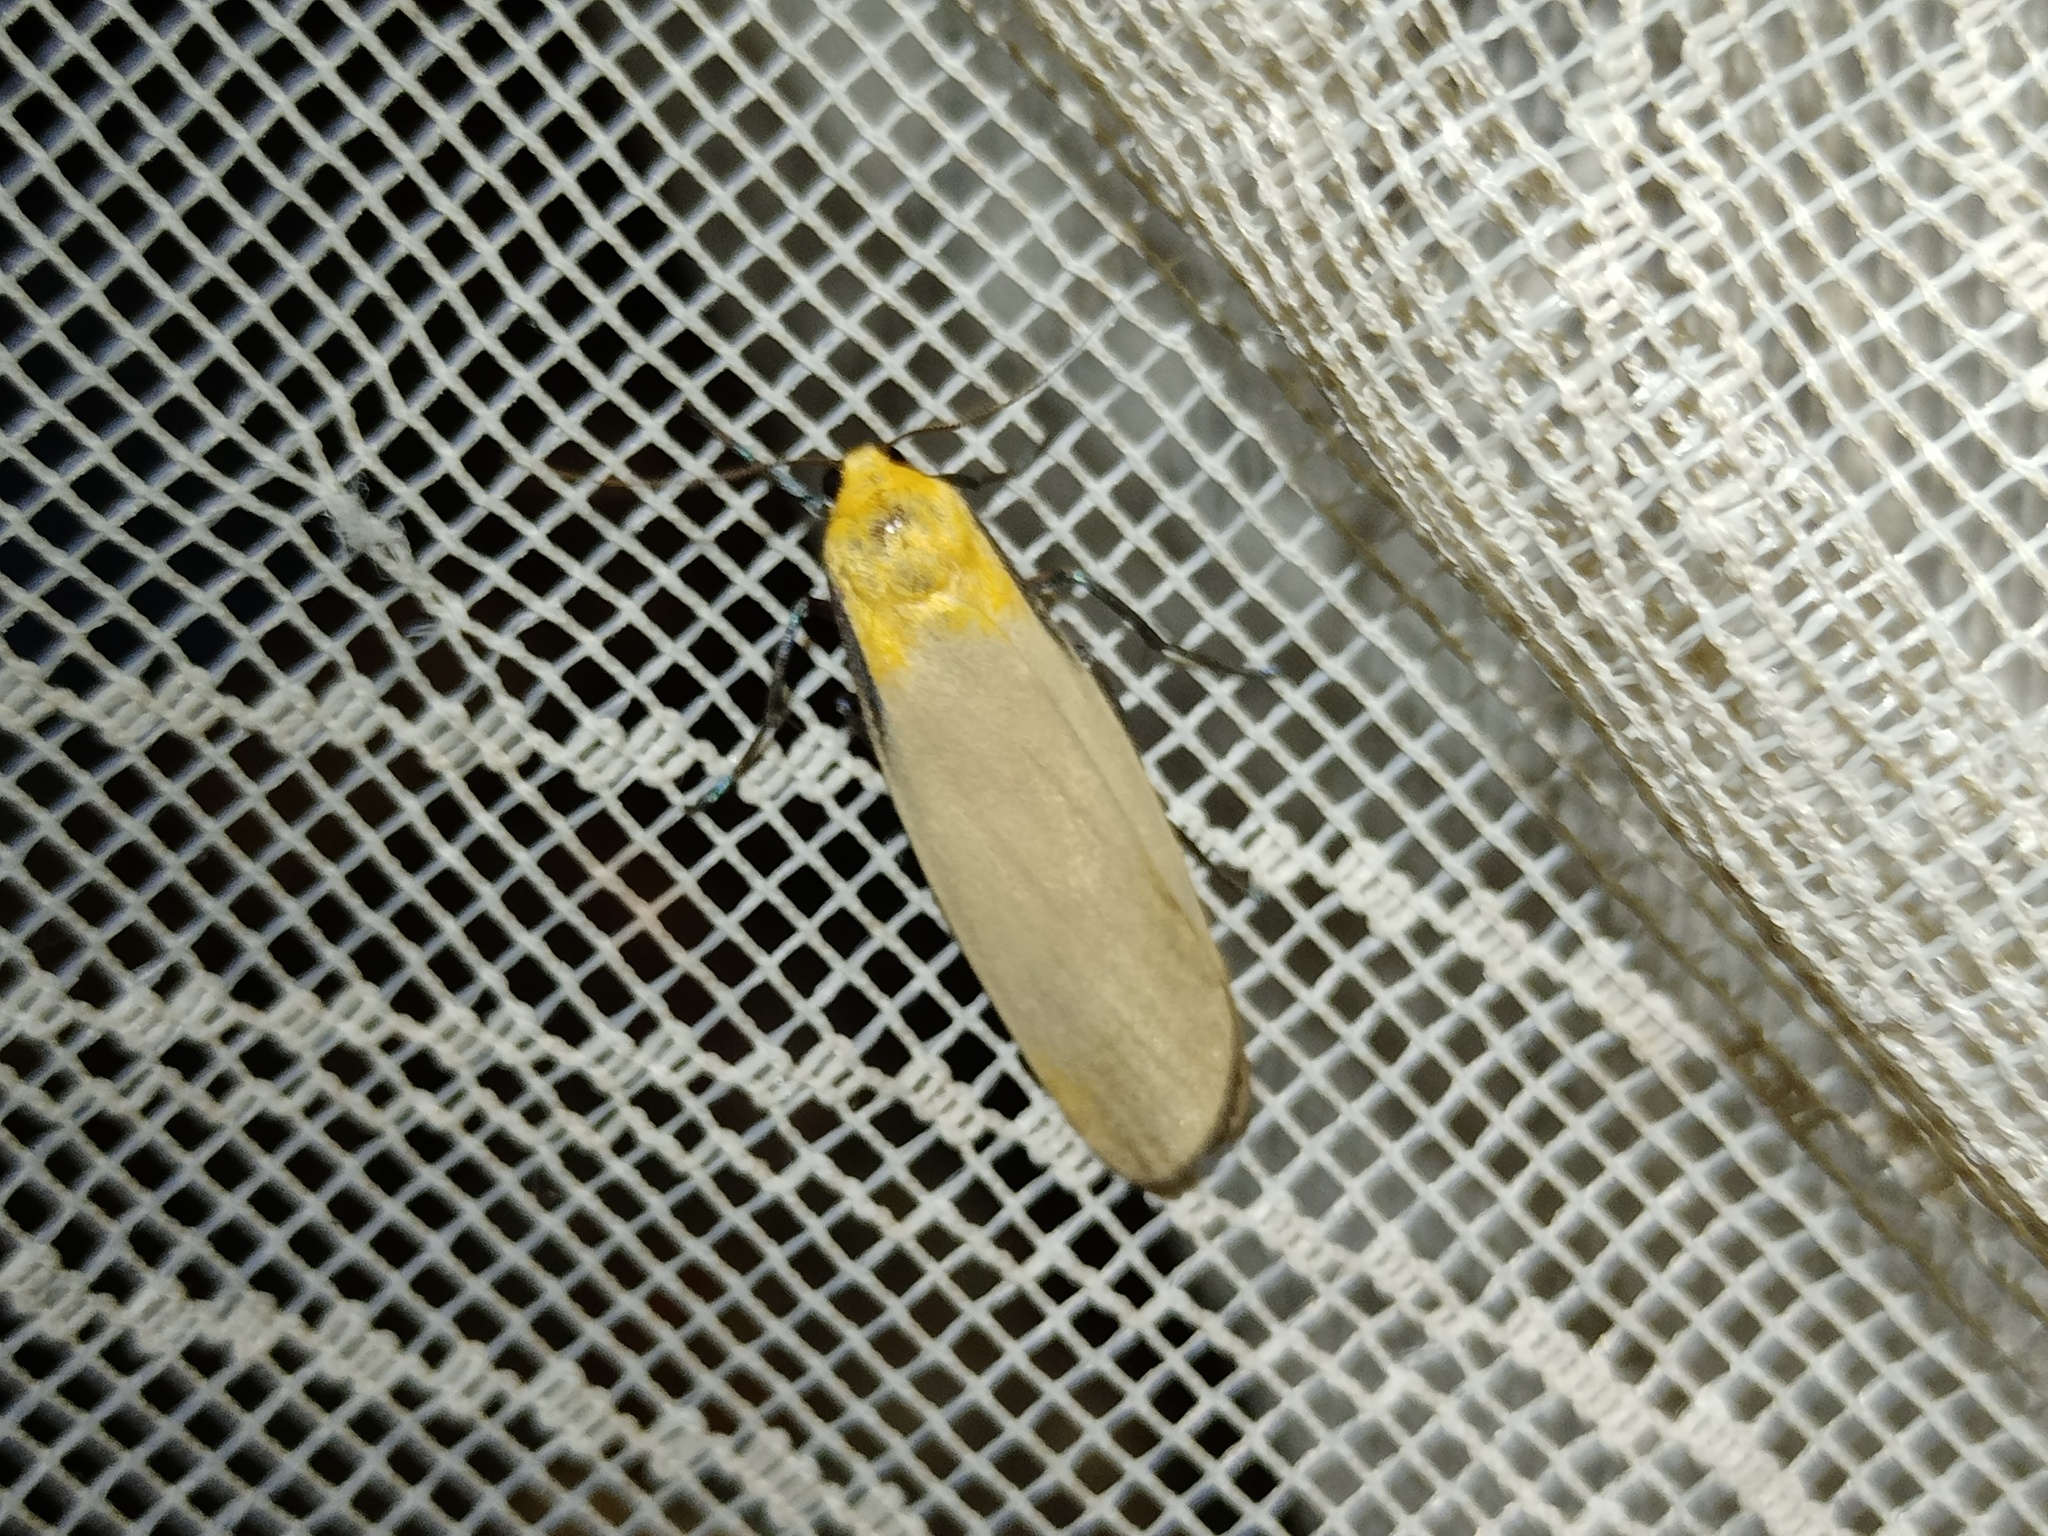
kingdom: Animalia
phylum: Arthropoda
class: Insecta
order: Lepidoptera
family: Erebidae
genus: Lithosia
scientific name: Lithosia quadra
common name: Four-spotted footman
